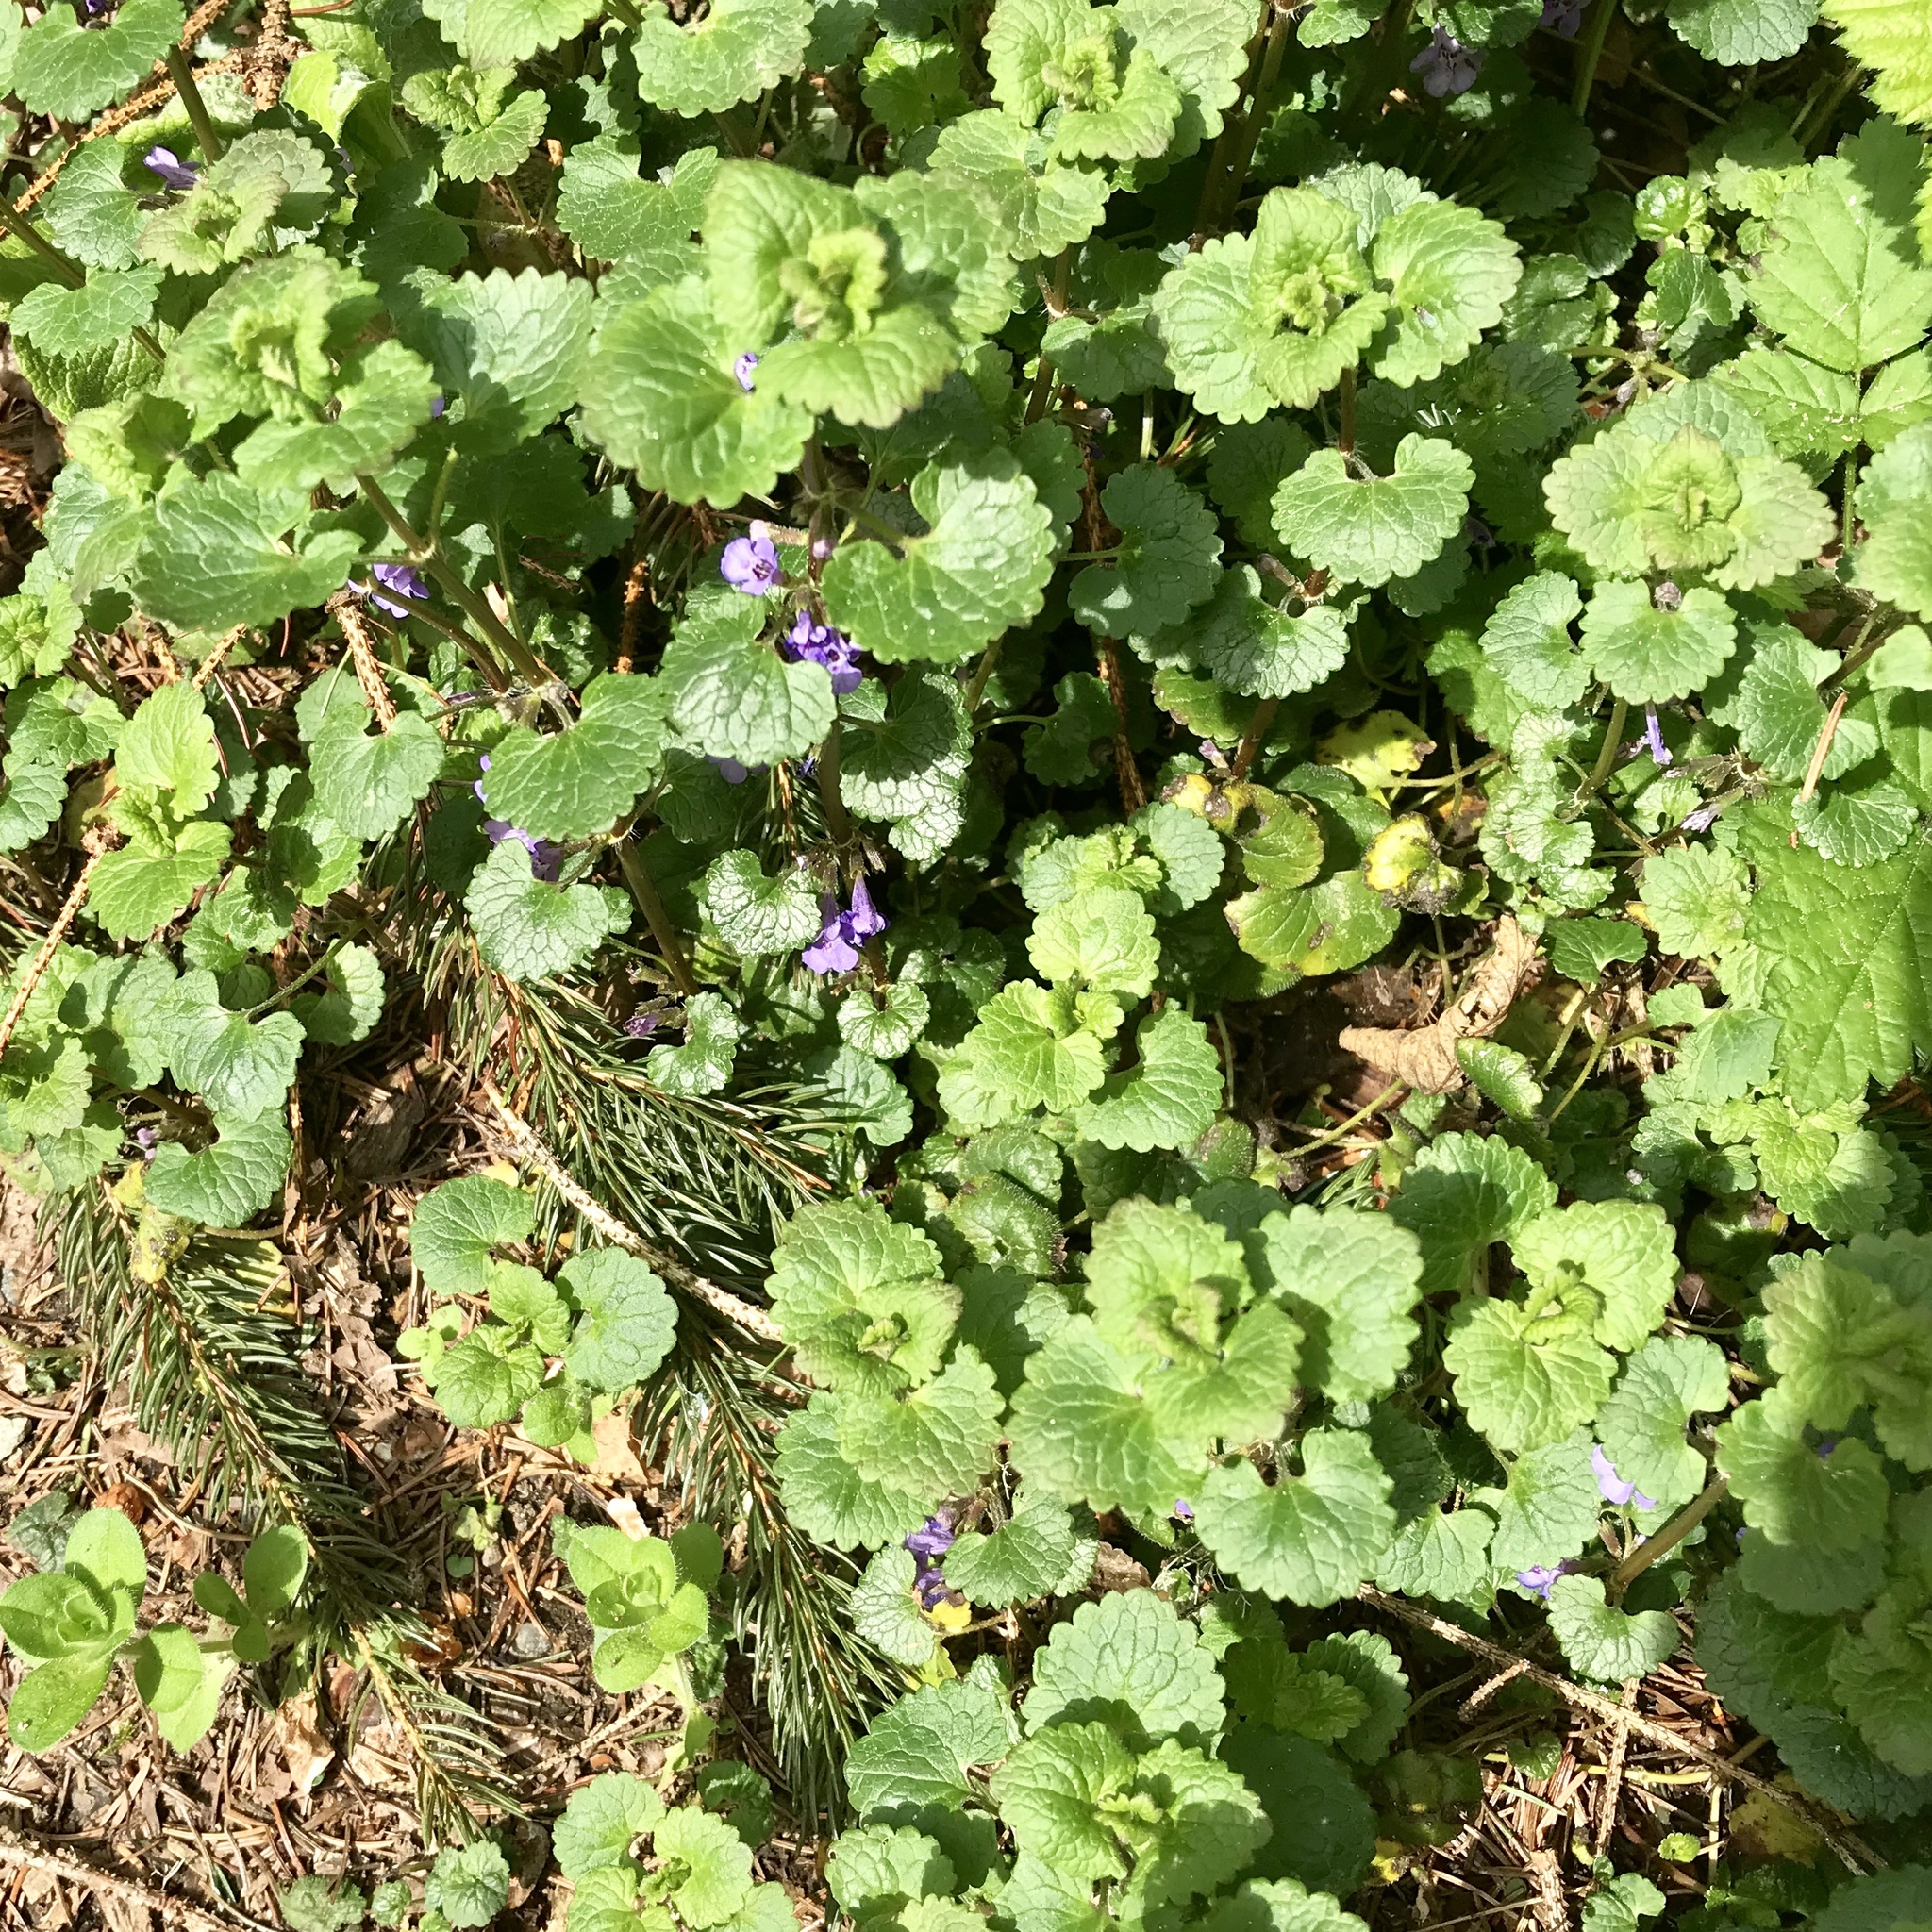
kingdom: Plantae
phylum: Tracheophyta
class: Magnoliopsida
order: Lamiales
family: Lamiaceae
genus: Glechoma
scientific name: Glechoma hederacea
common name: Ground ivy
